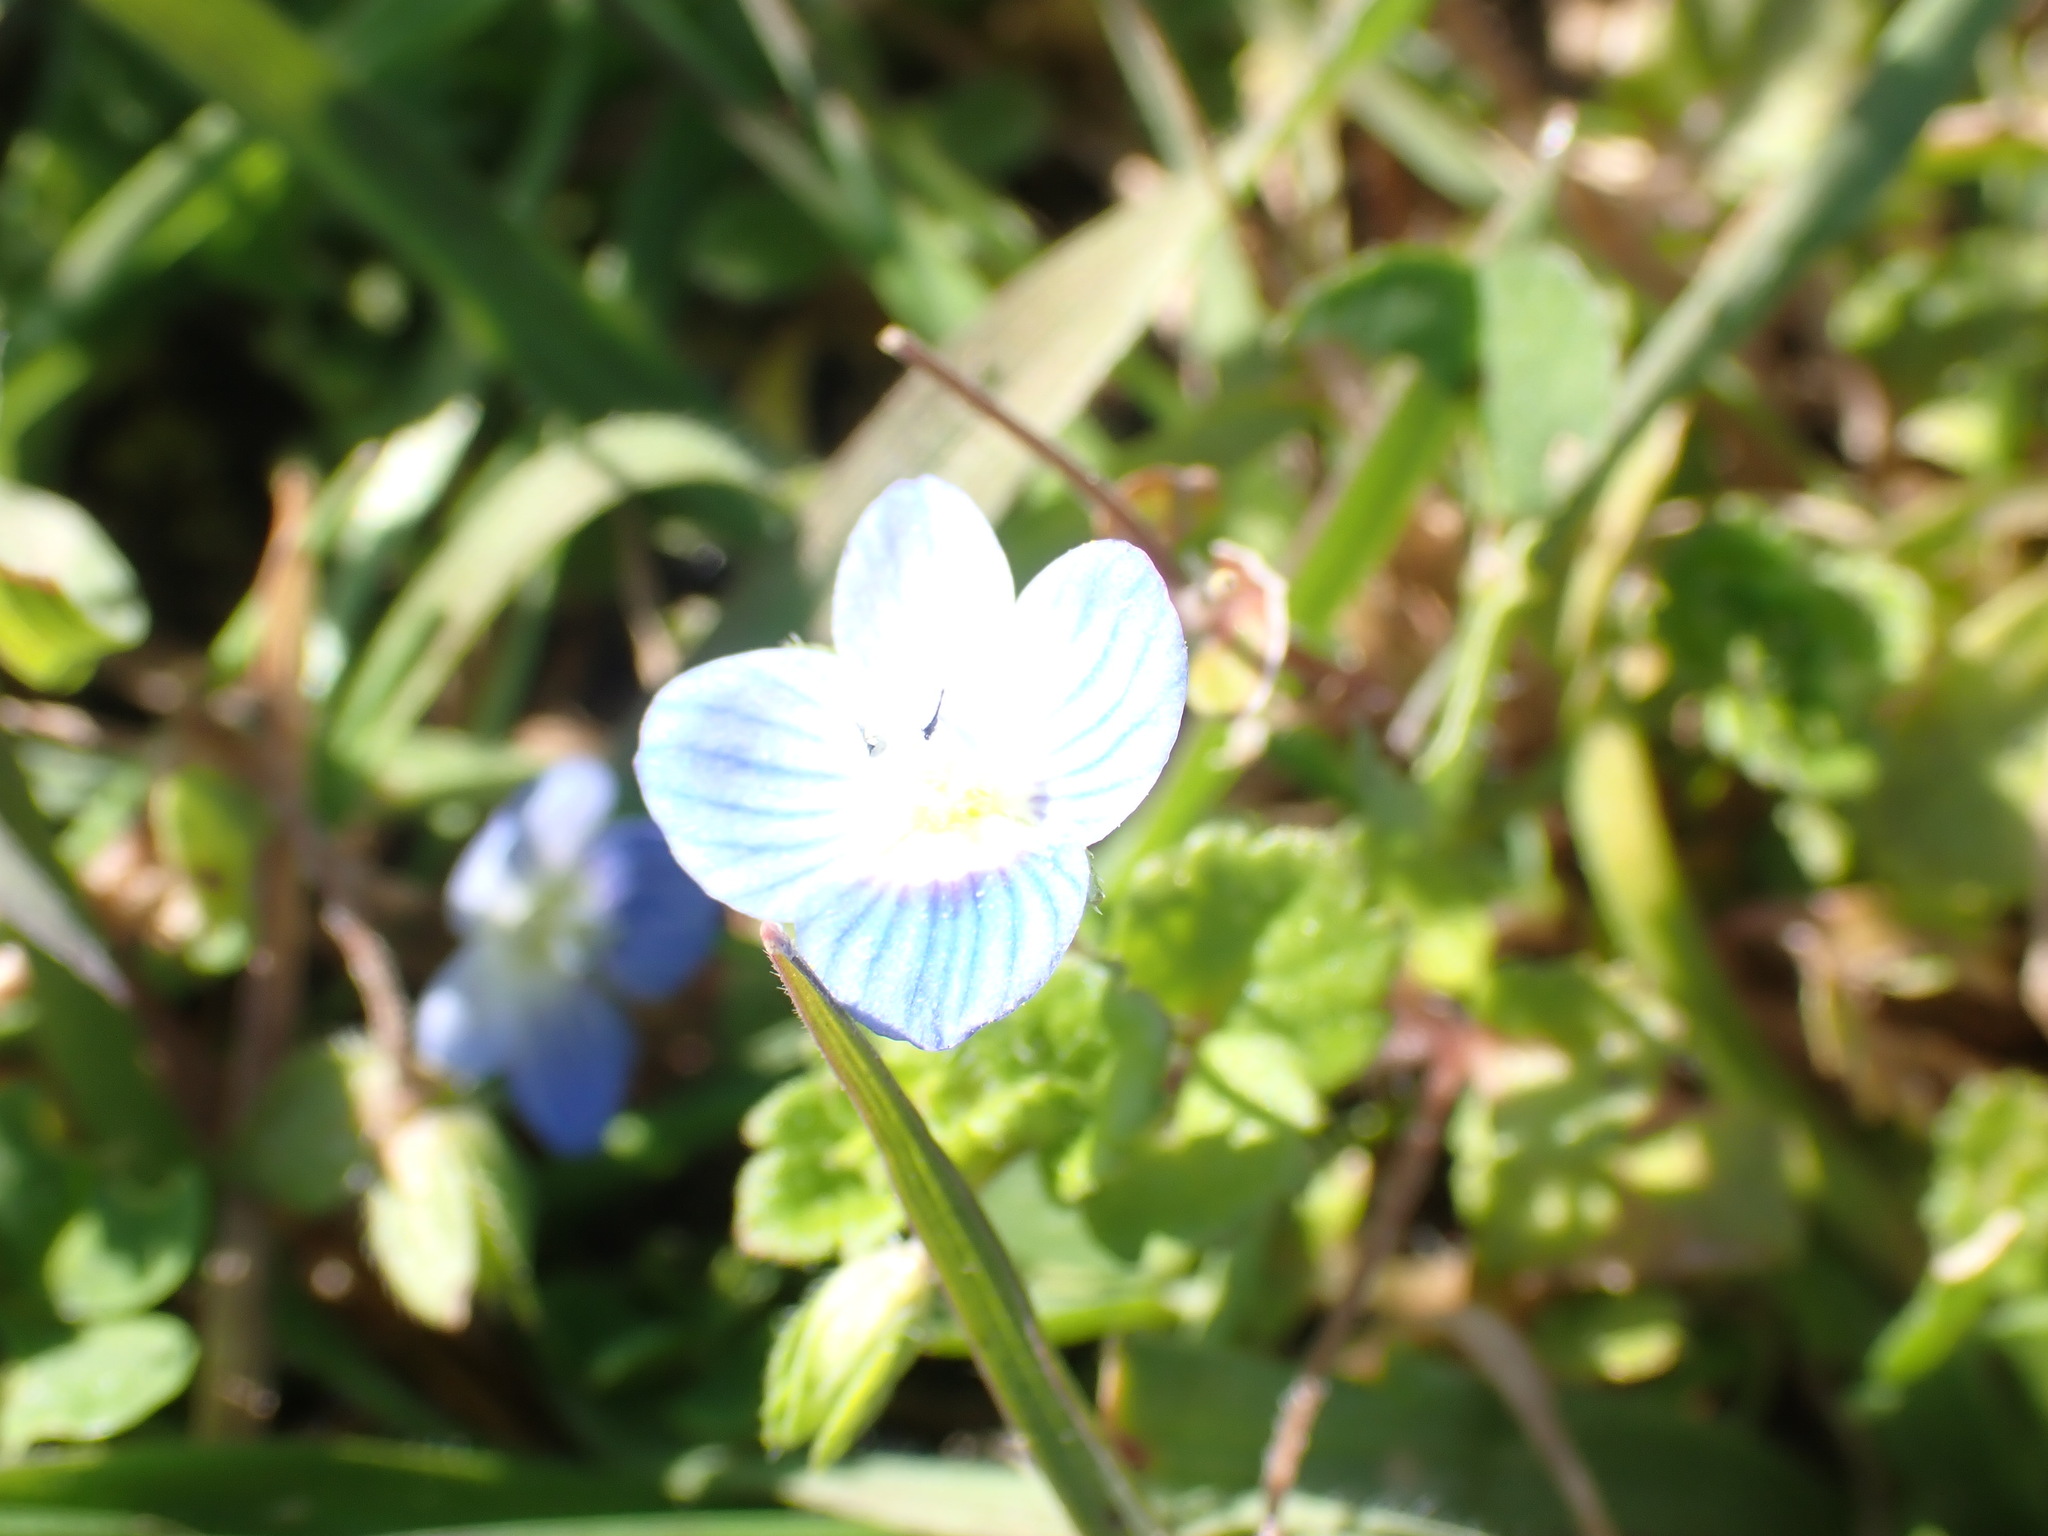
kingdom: Plantae
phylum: Tracheophyta
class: Magnoliopsida
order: Lamiales
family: Plantaginaceae
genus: Veronica
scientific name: Veronica persica
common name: Common field-speedwell
